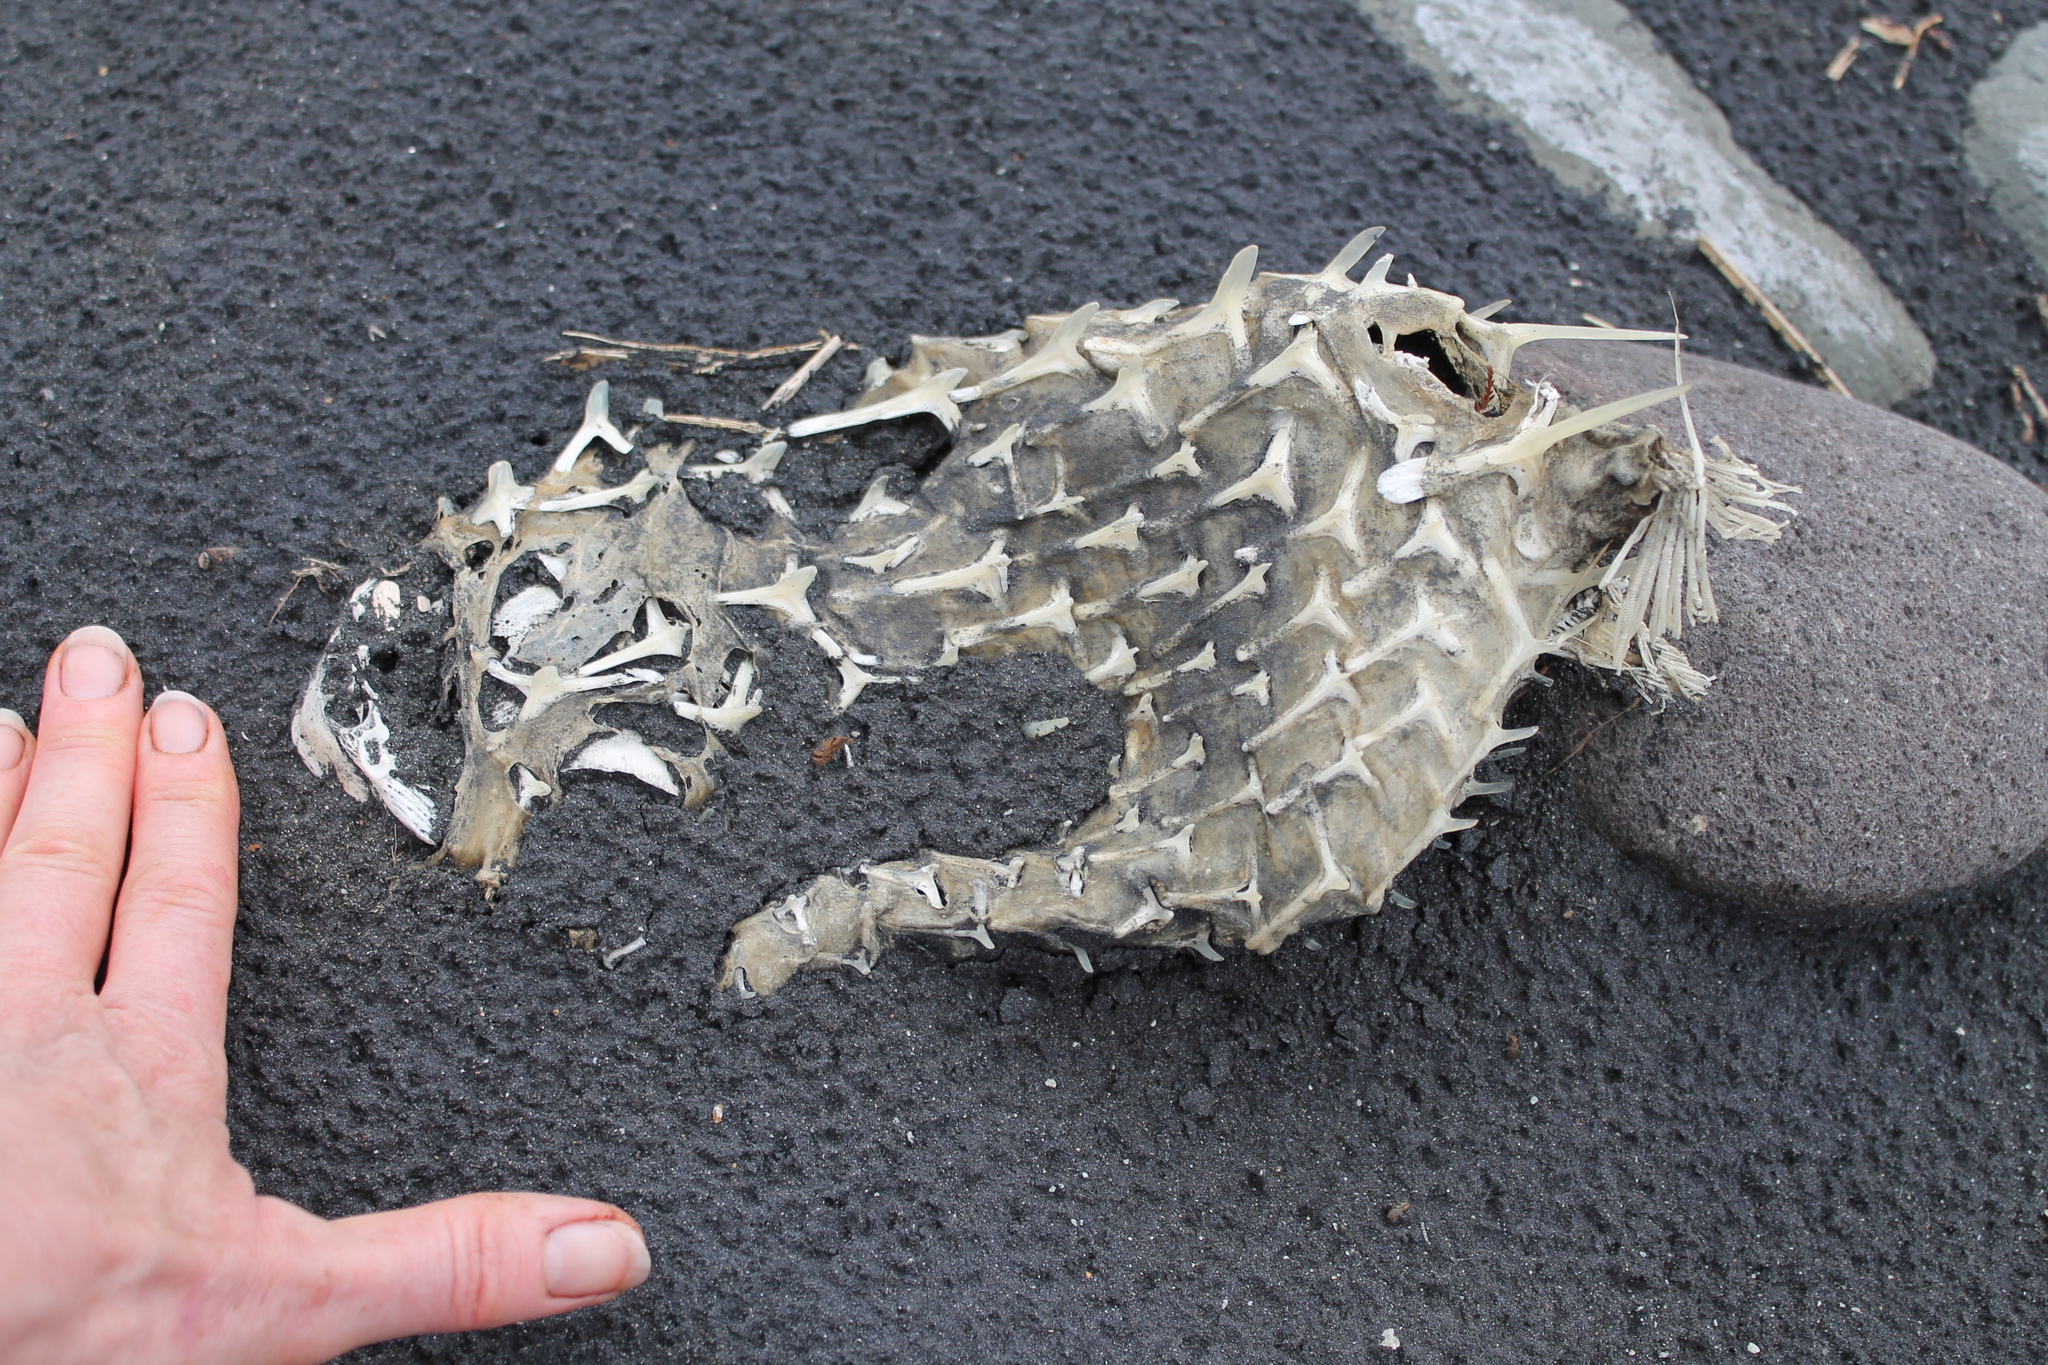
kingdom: Animalia
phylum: Chordata
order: Tetraodontiformes
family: Diodontidae
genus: Allomycterus
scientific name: Allomycterus pilatus
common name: No common name
